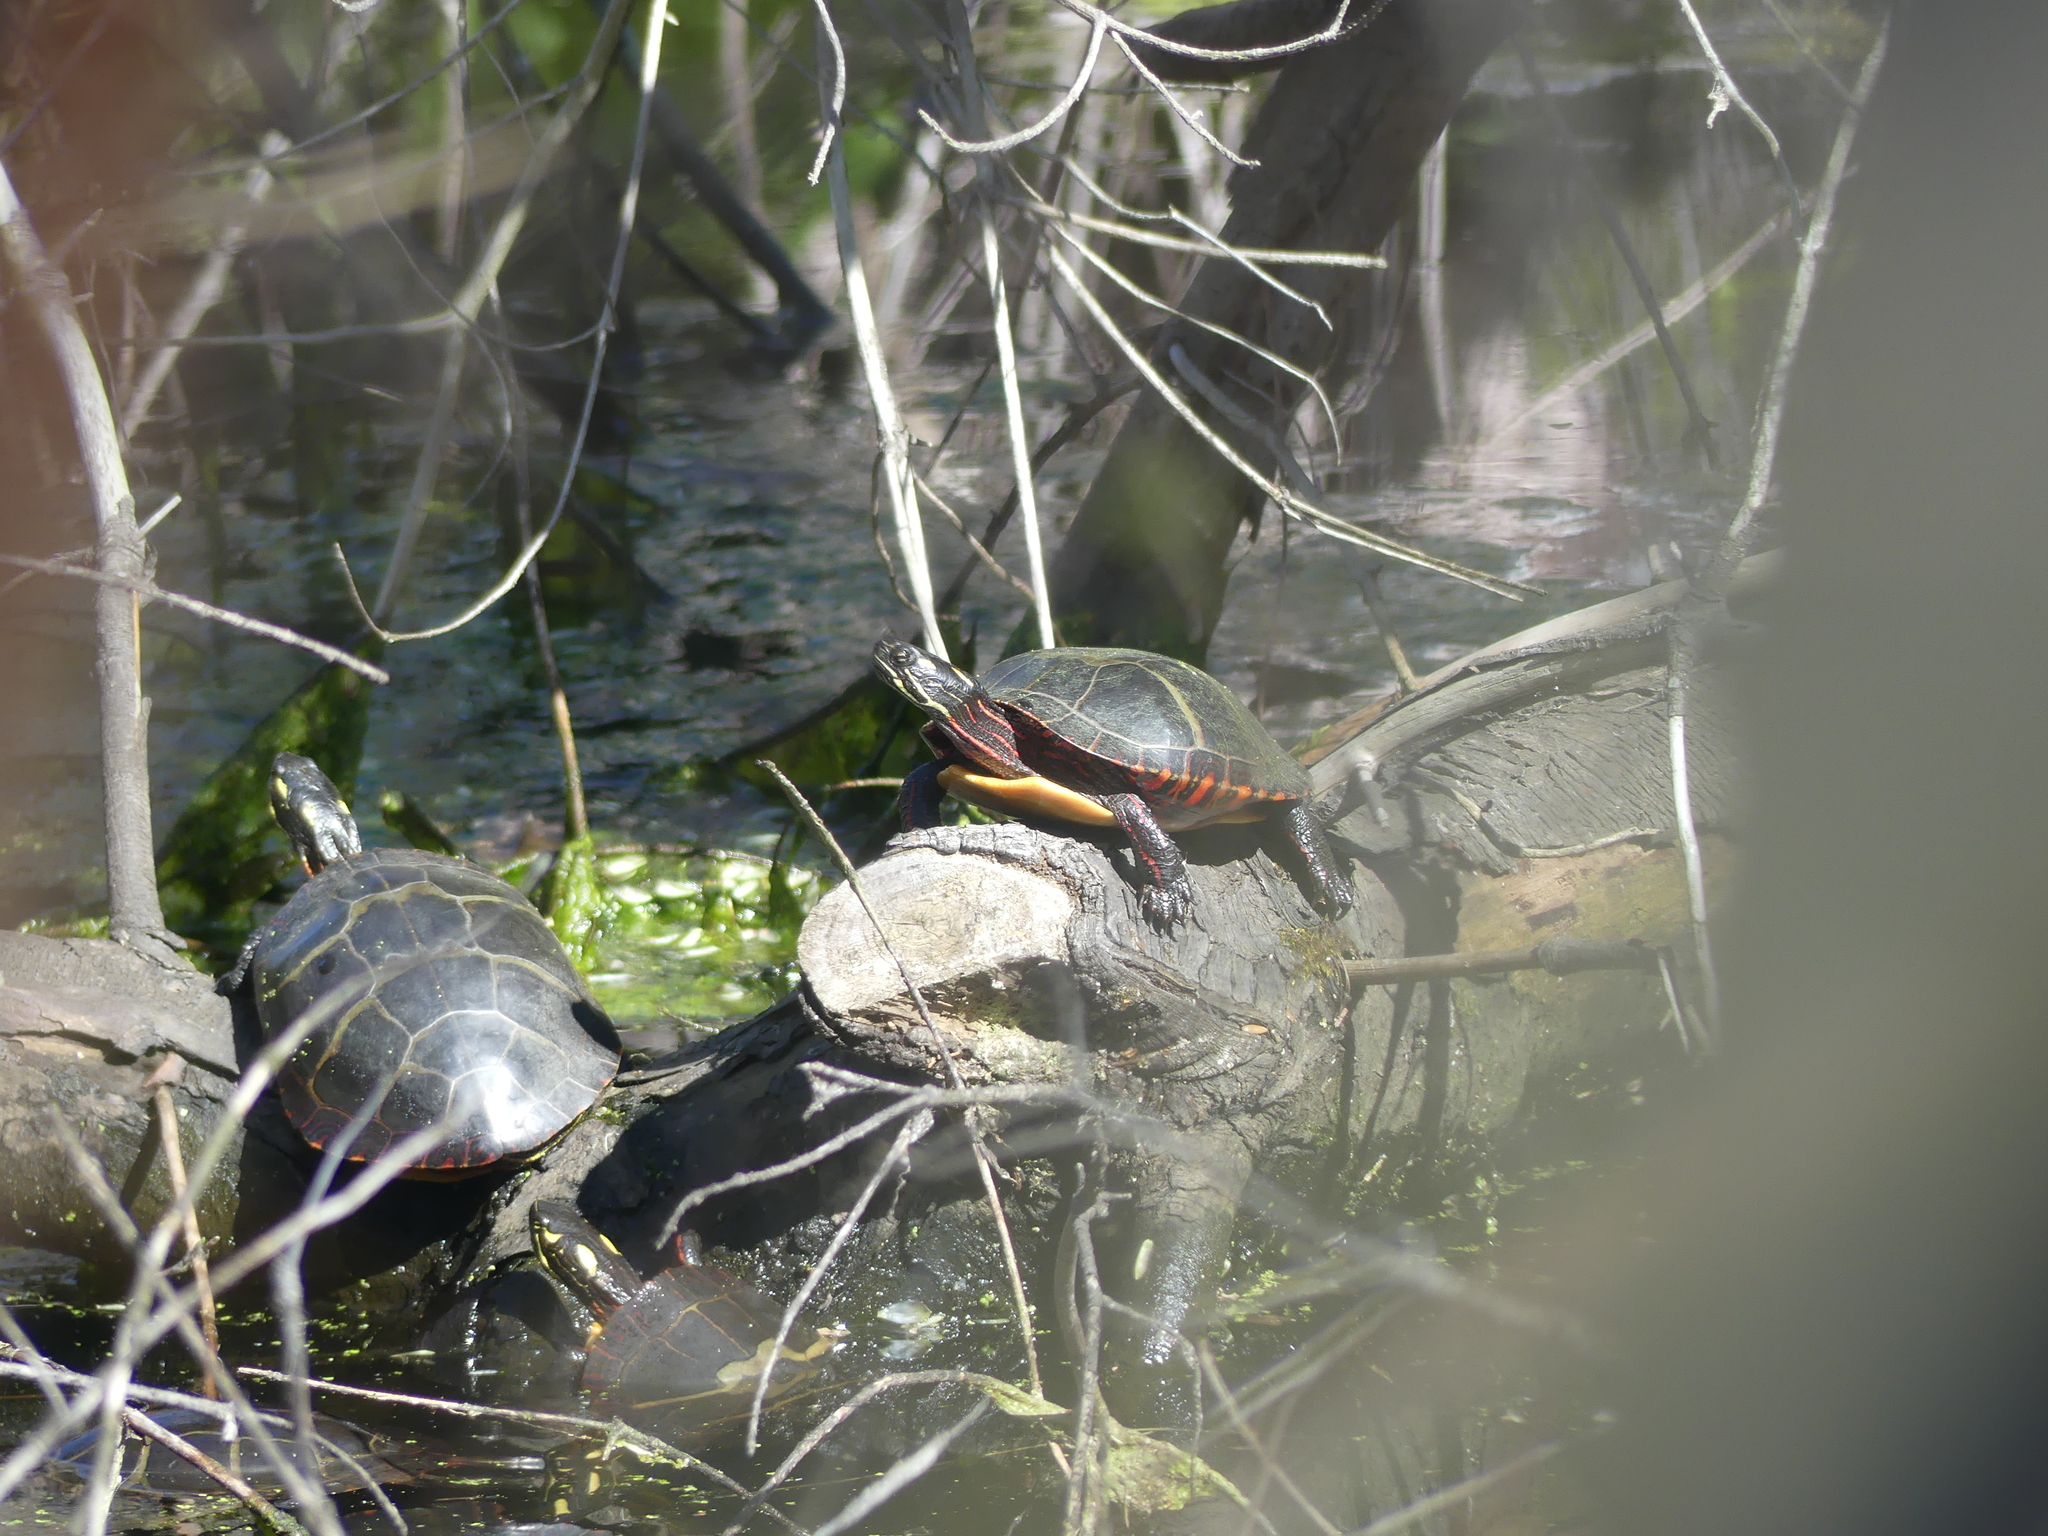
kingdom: Animalia
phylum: Chordata
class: Testudines
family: Emydidae
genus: Chrysemys
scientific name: Chrysemys picta
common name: Painted turtle
